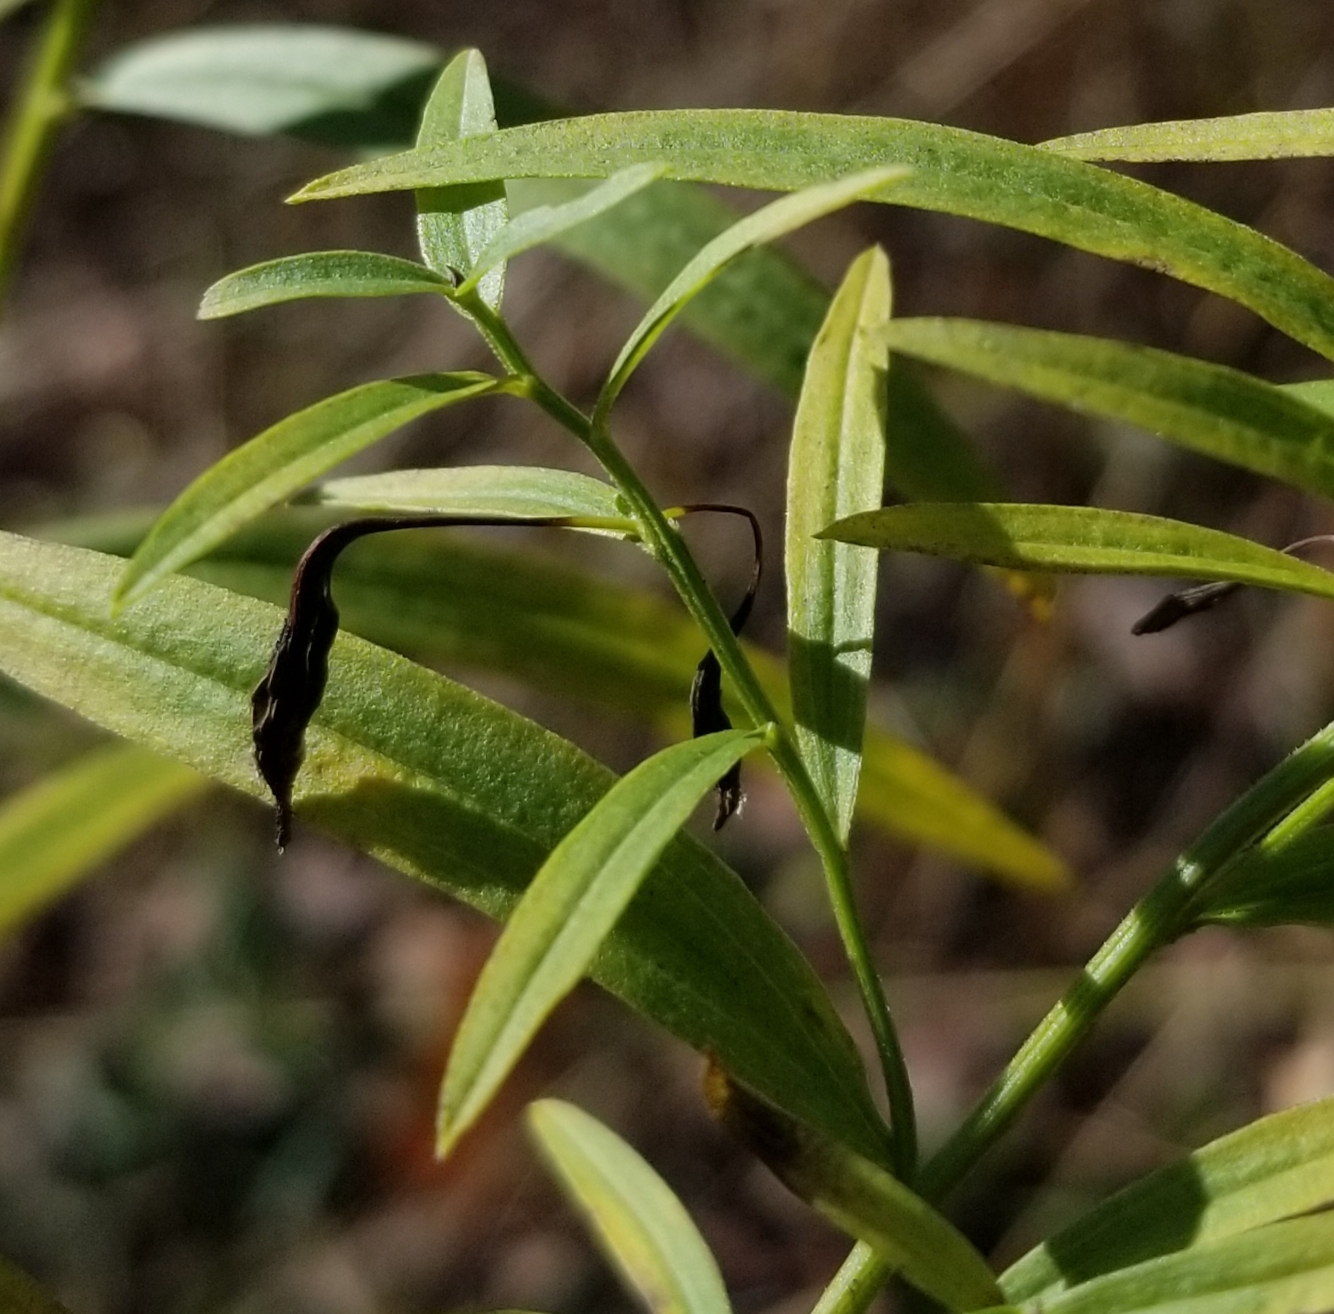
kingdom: Animalia
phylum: Arthropoda
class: Insecta
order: Diptera
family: Cecidomyiidae
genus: Rhopalomyia
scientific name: Rhopalomyia pedicellata
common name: Goldentop pedicellate gall midge
